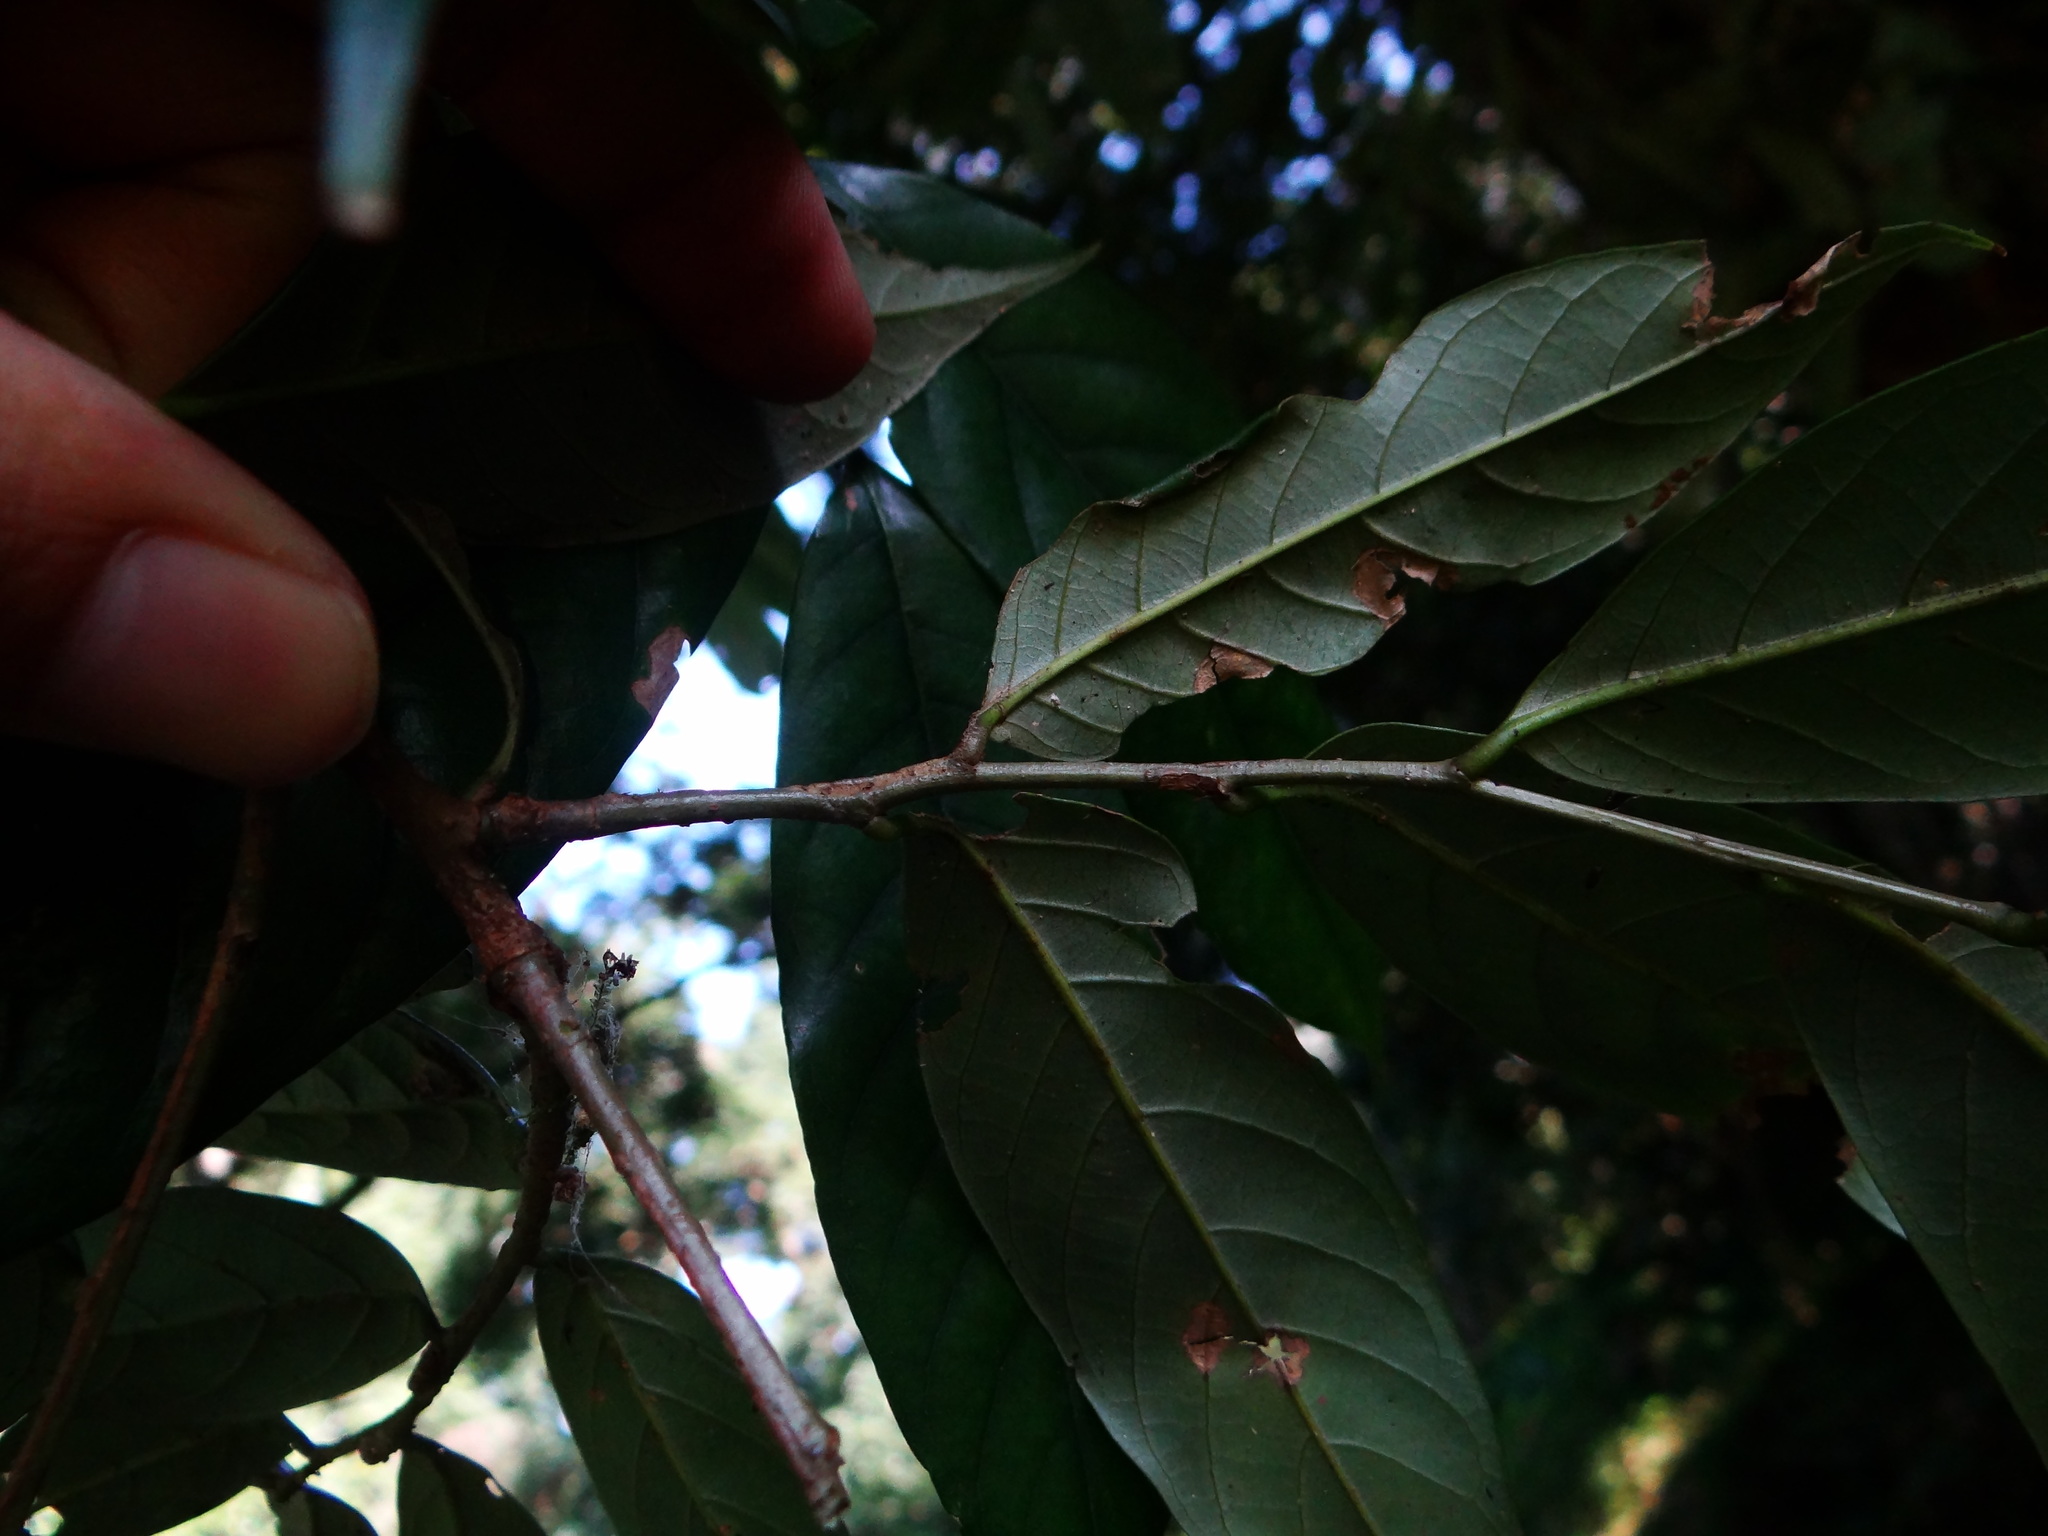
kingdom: Plantae
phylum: Tracheophyta
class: Magnoliopsida
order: Fagales
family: Fagaceae
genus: Castanopsis
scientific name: Castanopsis faberi
